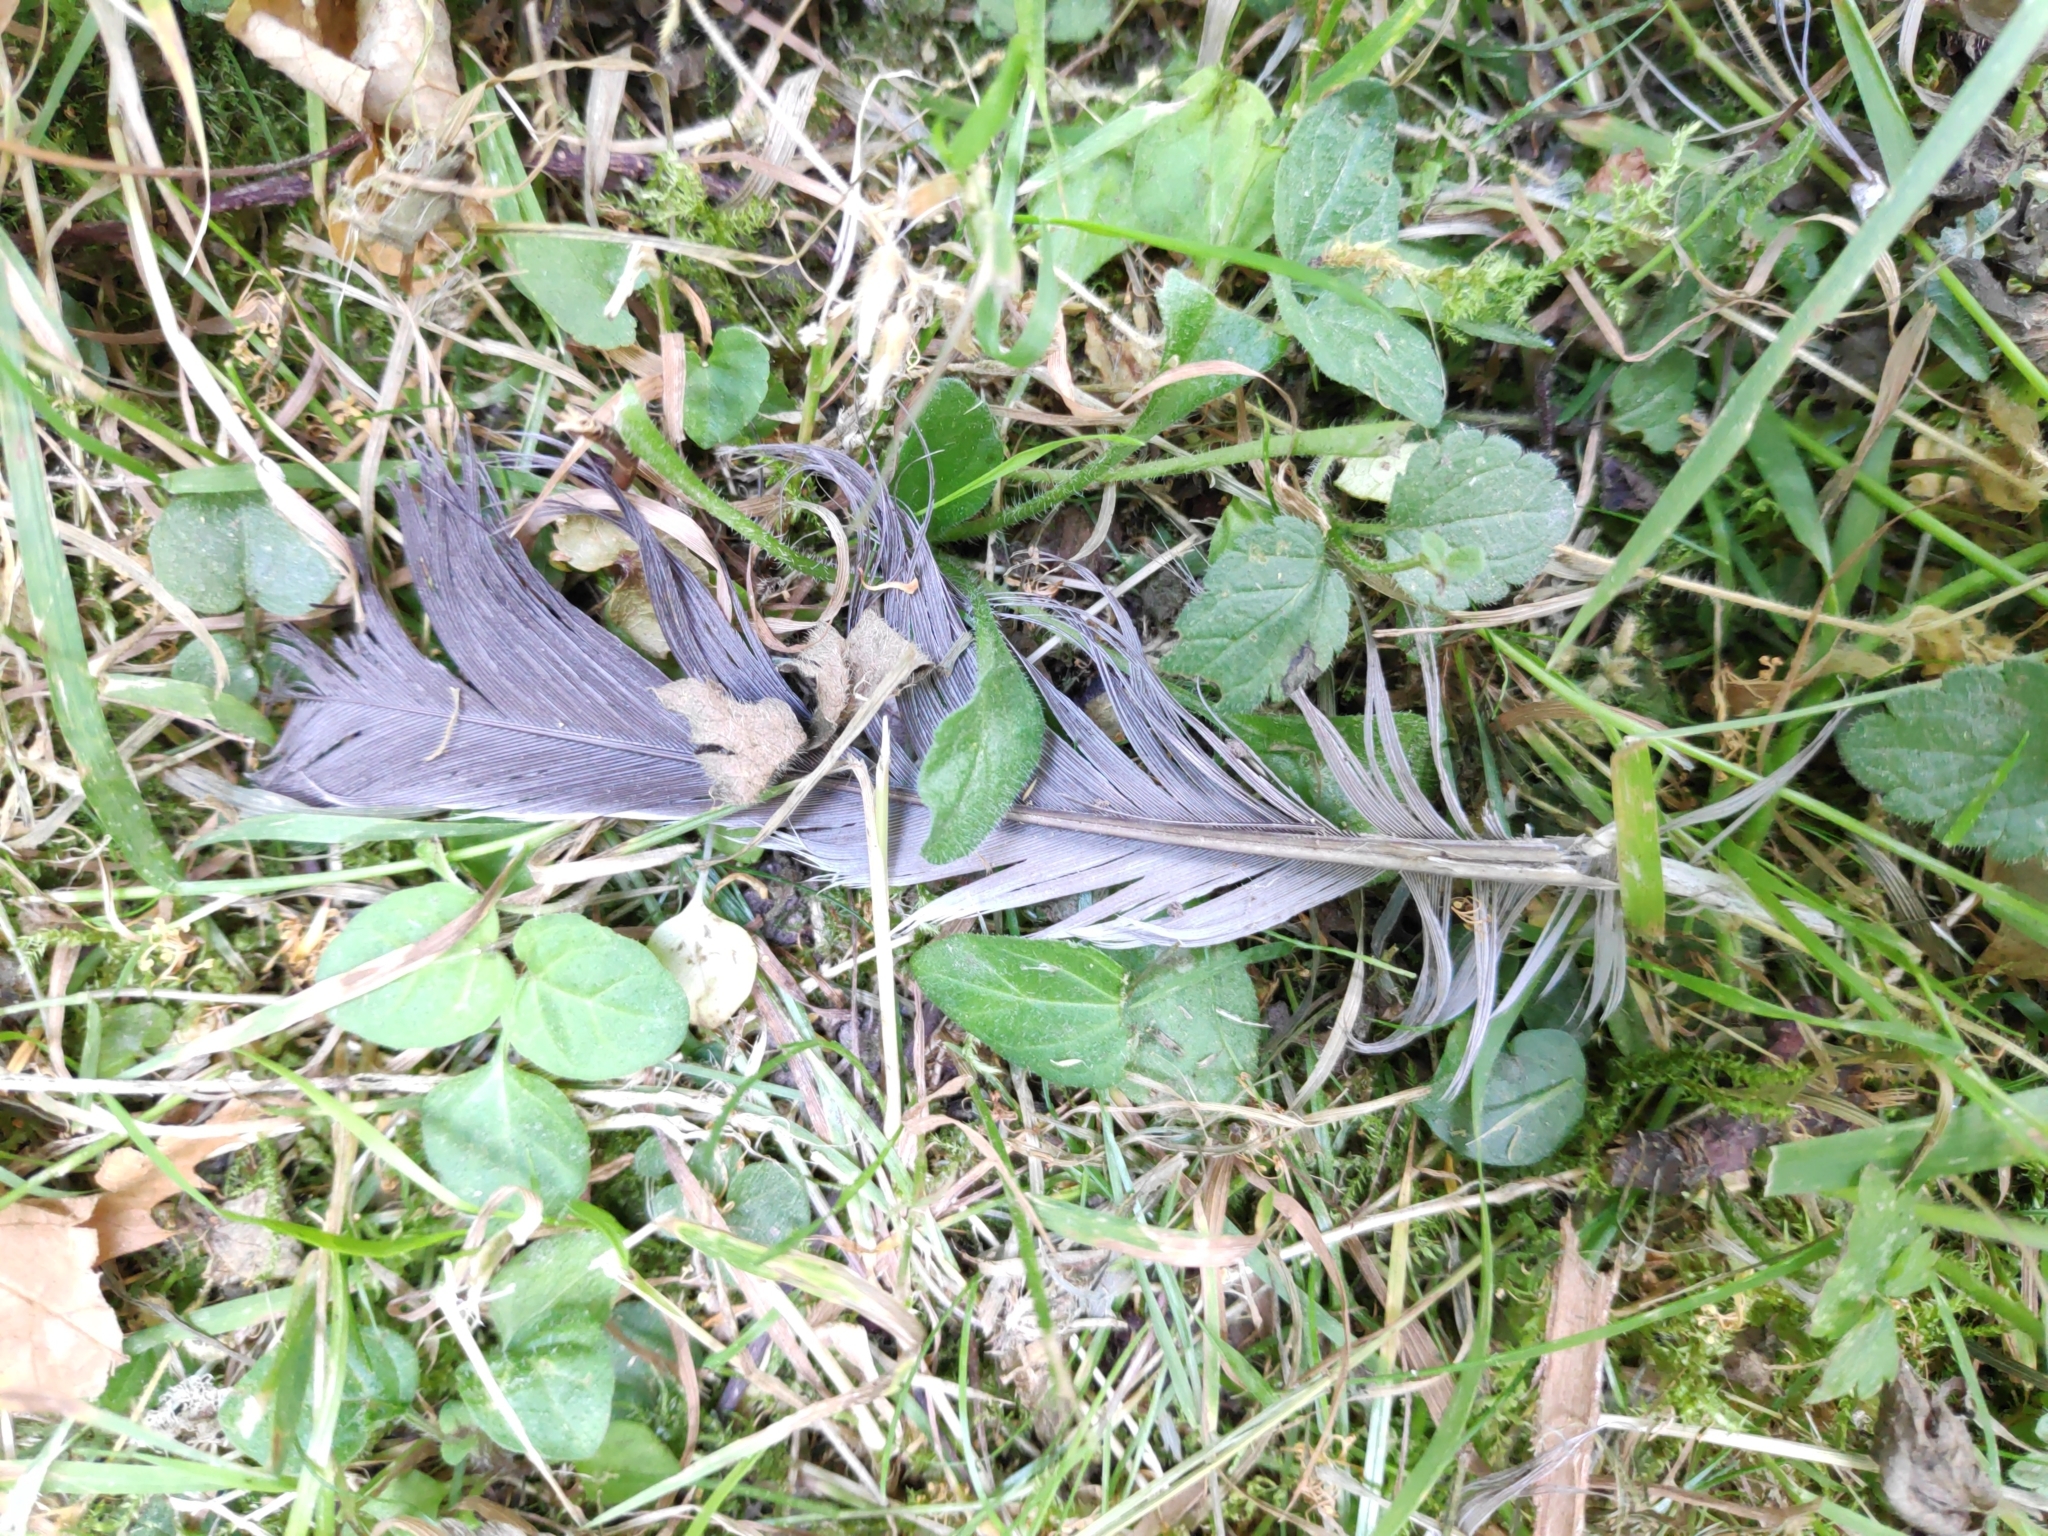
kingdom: Animalia
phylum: Chordata
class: Aves
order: Columbiformes
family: Columbidae
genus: Columba
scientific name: Columba palumbus
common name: Common wood pigeon
